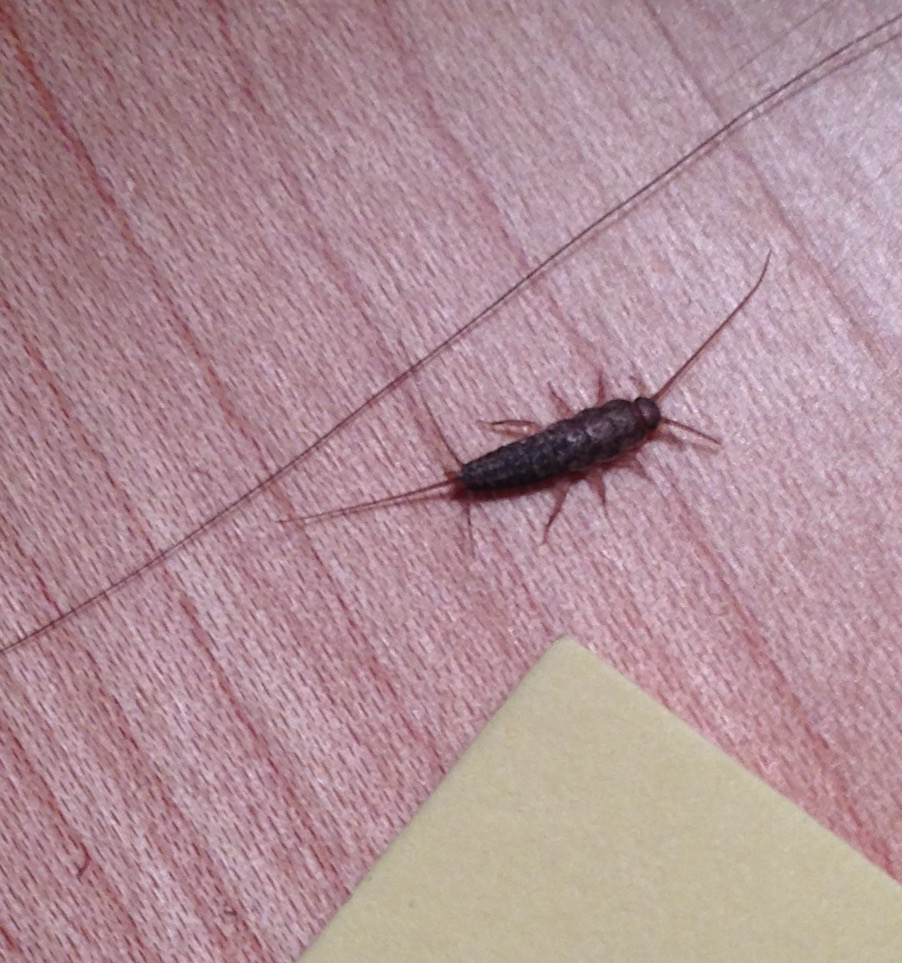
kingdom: Animalia
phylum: Arthropoda
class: Insecta
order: Zygentoma
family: Lepismatidae
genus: Ctenolepisma
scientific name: Ctenolepisma lineata
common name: Four-lined silverfish
